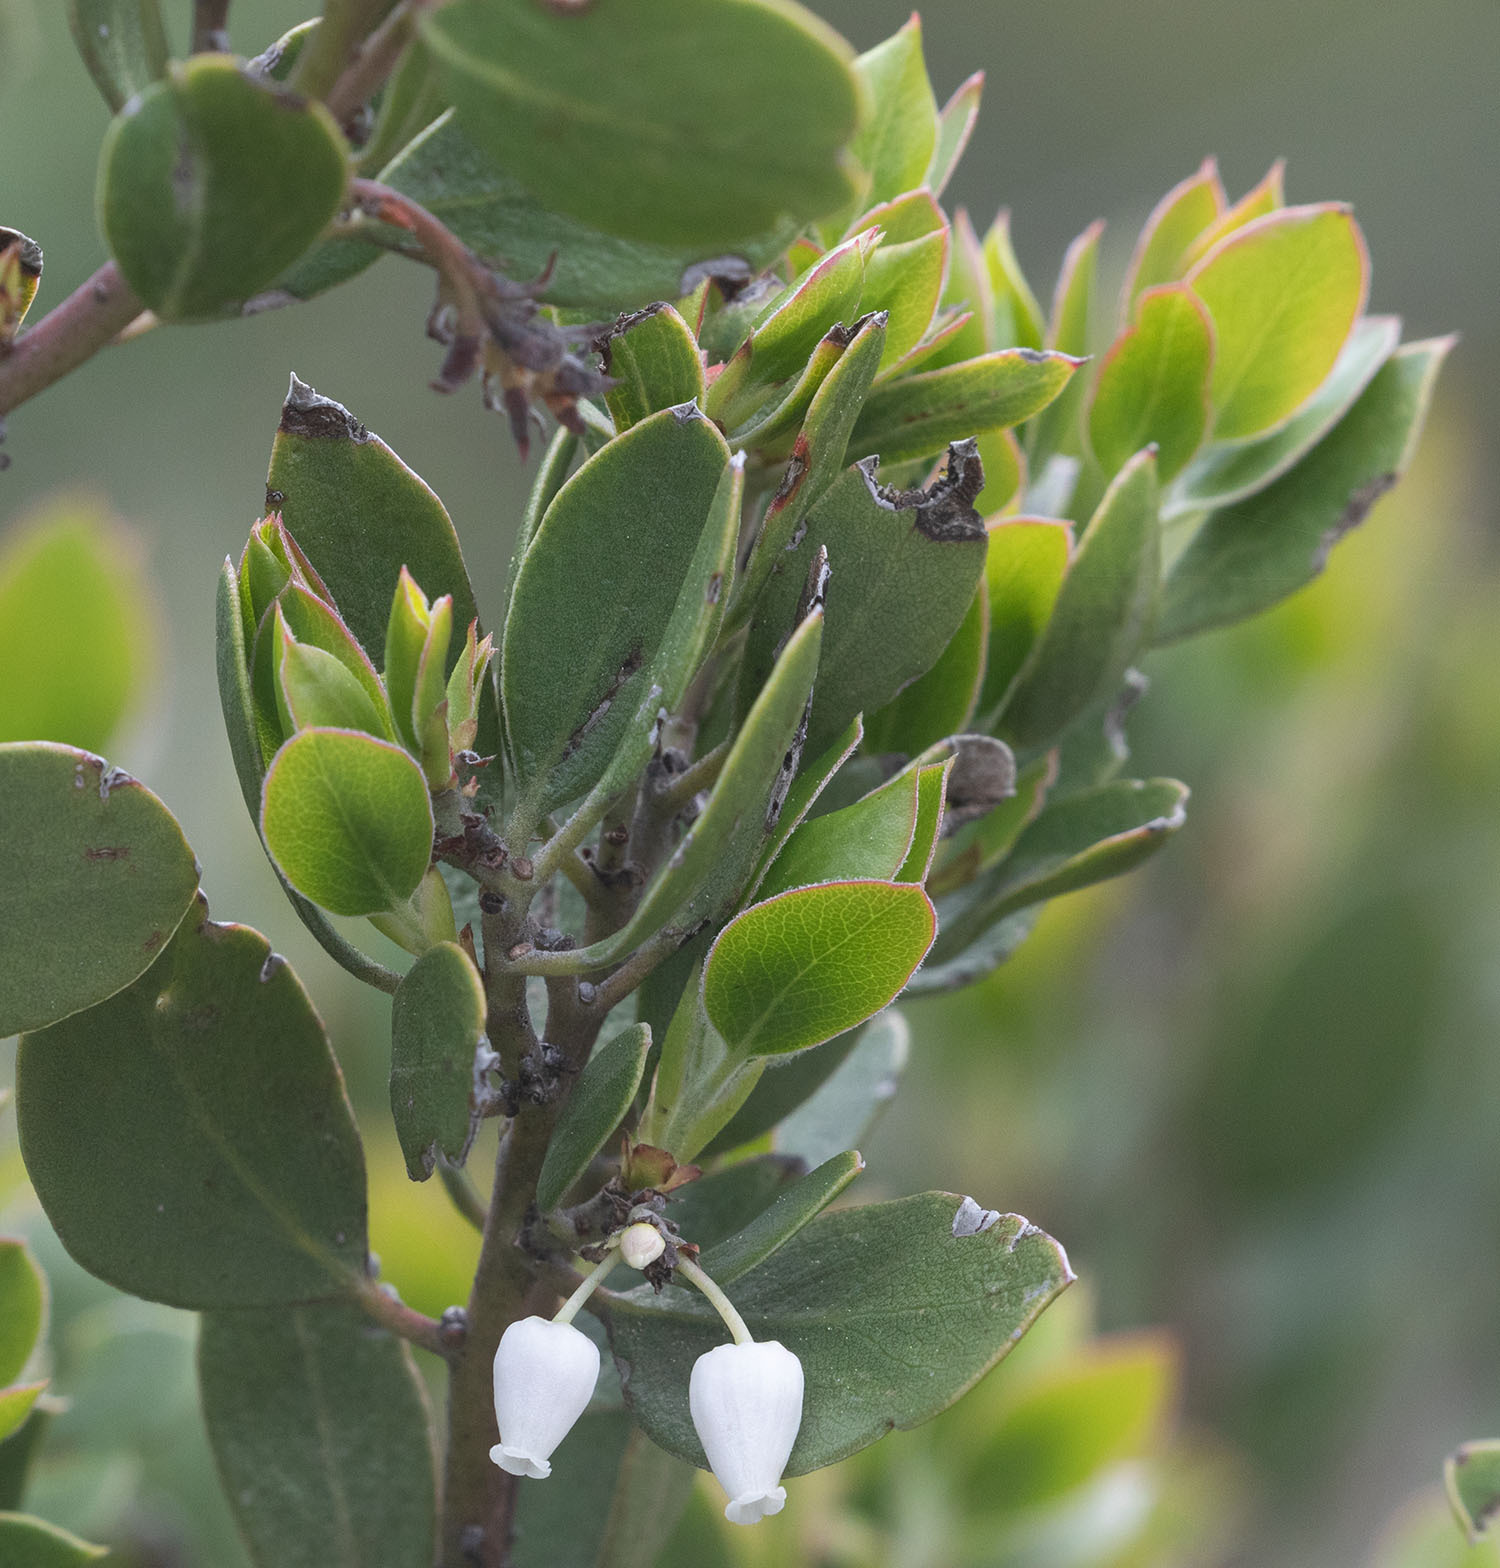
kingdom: Plantae
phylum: Tracheophyta
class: Magnoliopsida
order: Ericales
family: Ericaceae
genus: Arctostaphylos
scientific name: Arctostaphylos pungens
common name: Mexican manzanita
